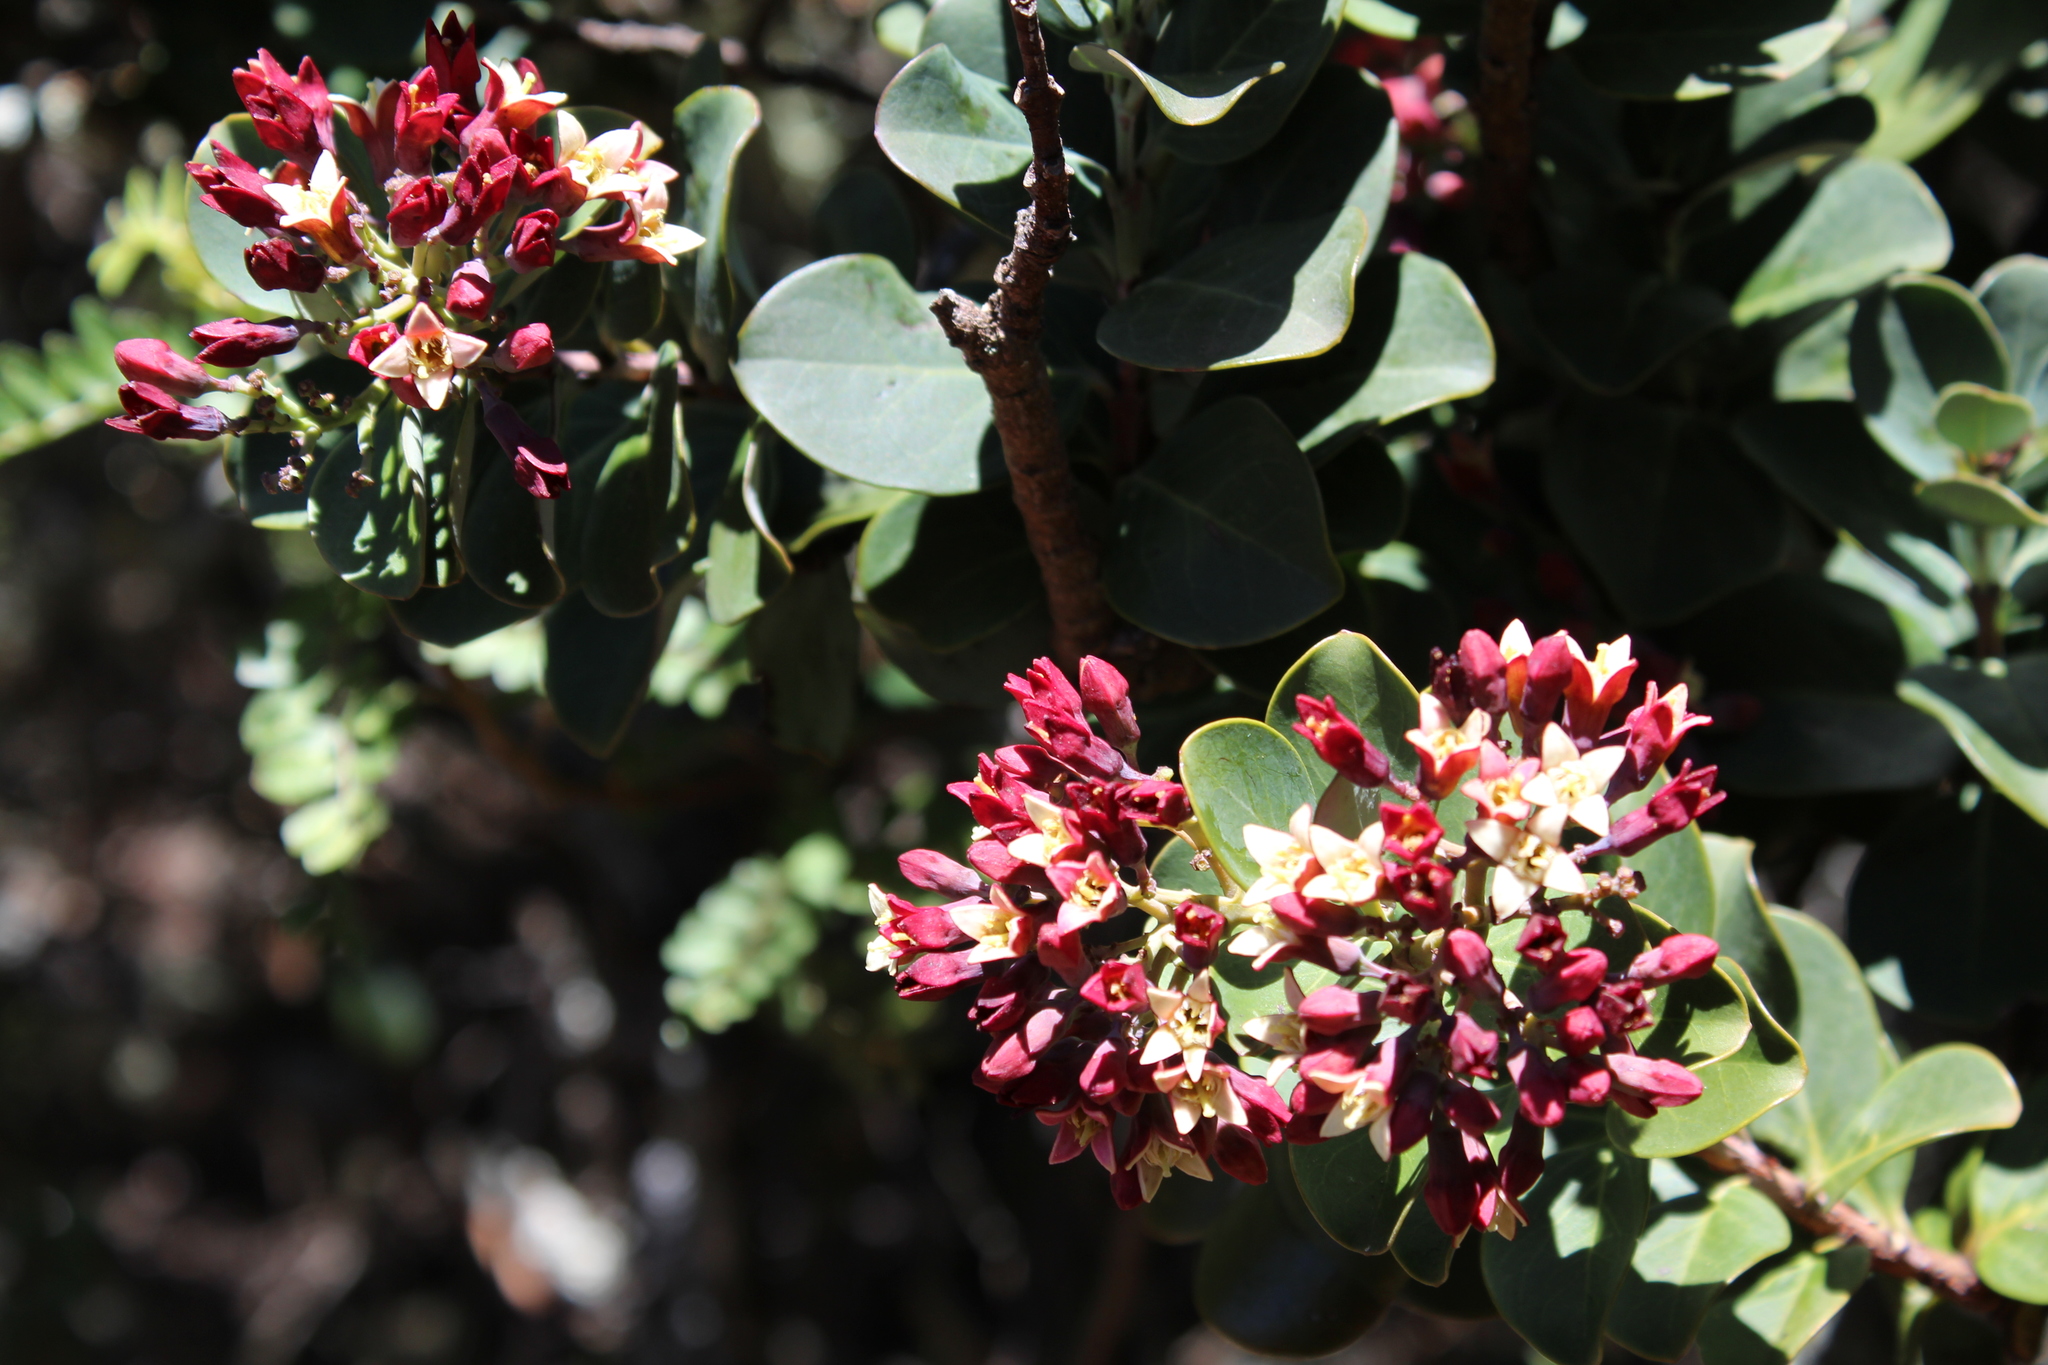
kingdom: Plantae
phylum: Tracheophyta
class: Magnoliopsida
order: Santalales
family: Santalaceae
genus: Santalum
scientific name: Santalum haleakalae
